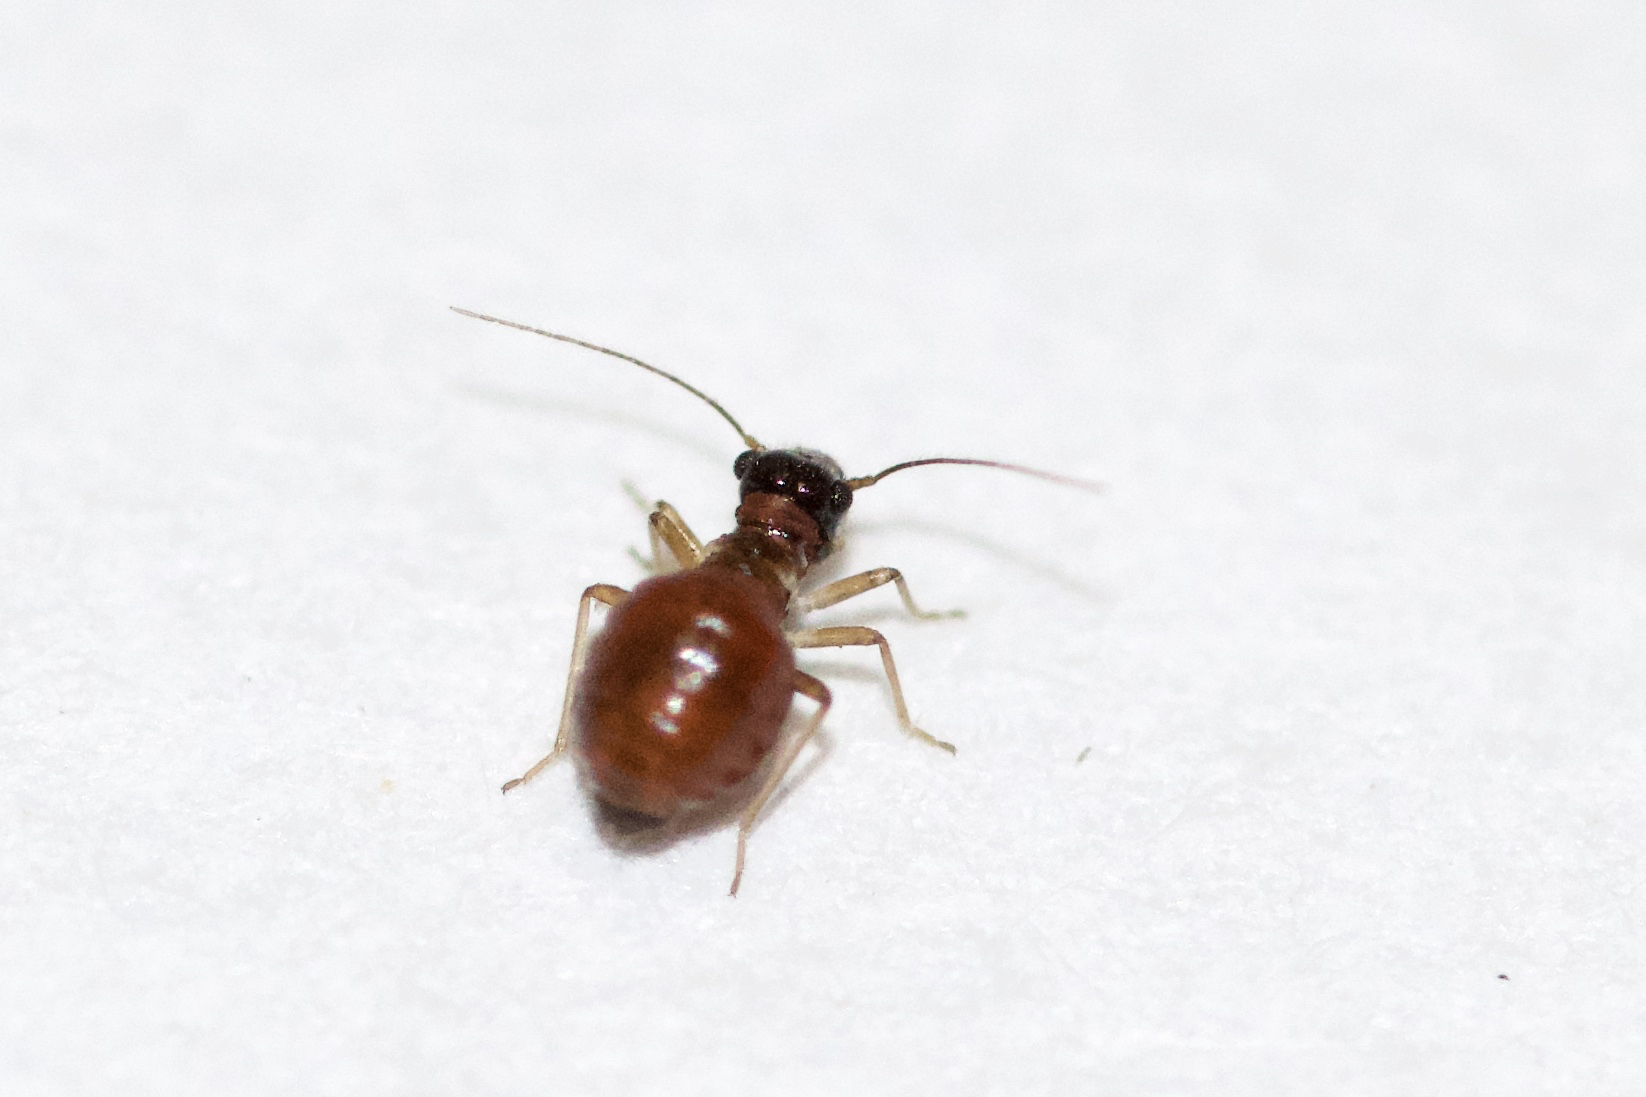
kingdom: Animalia
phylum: Arthropoda
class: Insecta
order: Psocodea
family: Caeciliusidae
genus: Valenzuela
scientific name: Valenzuela posticus
